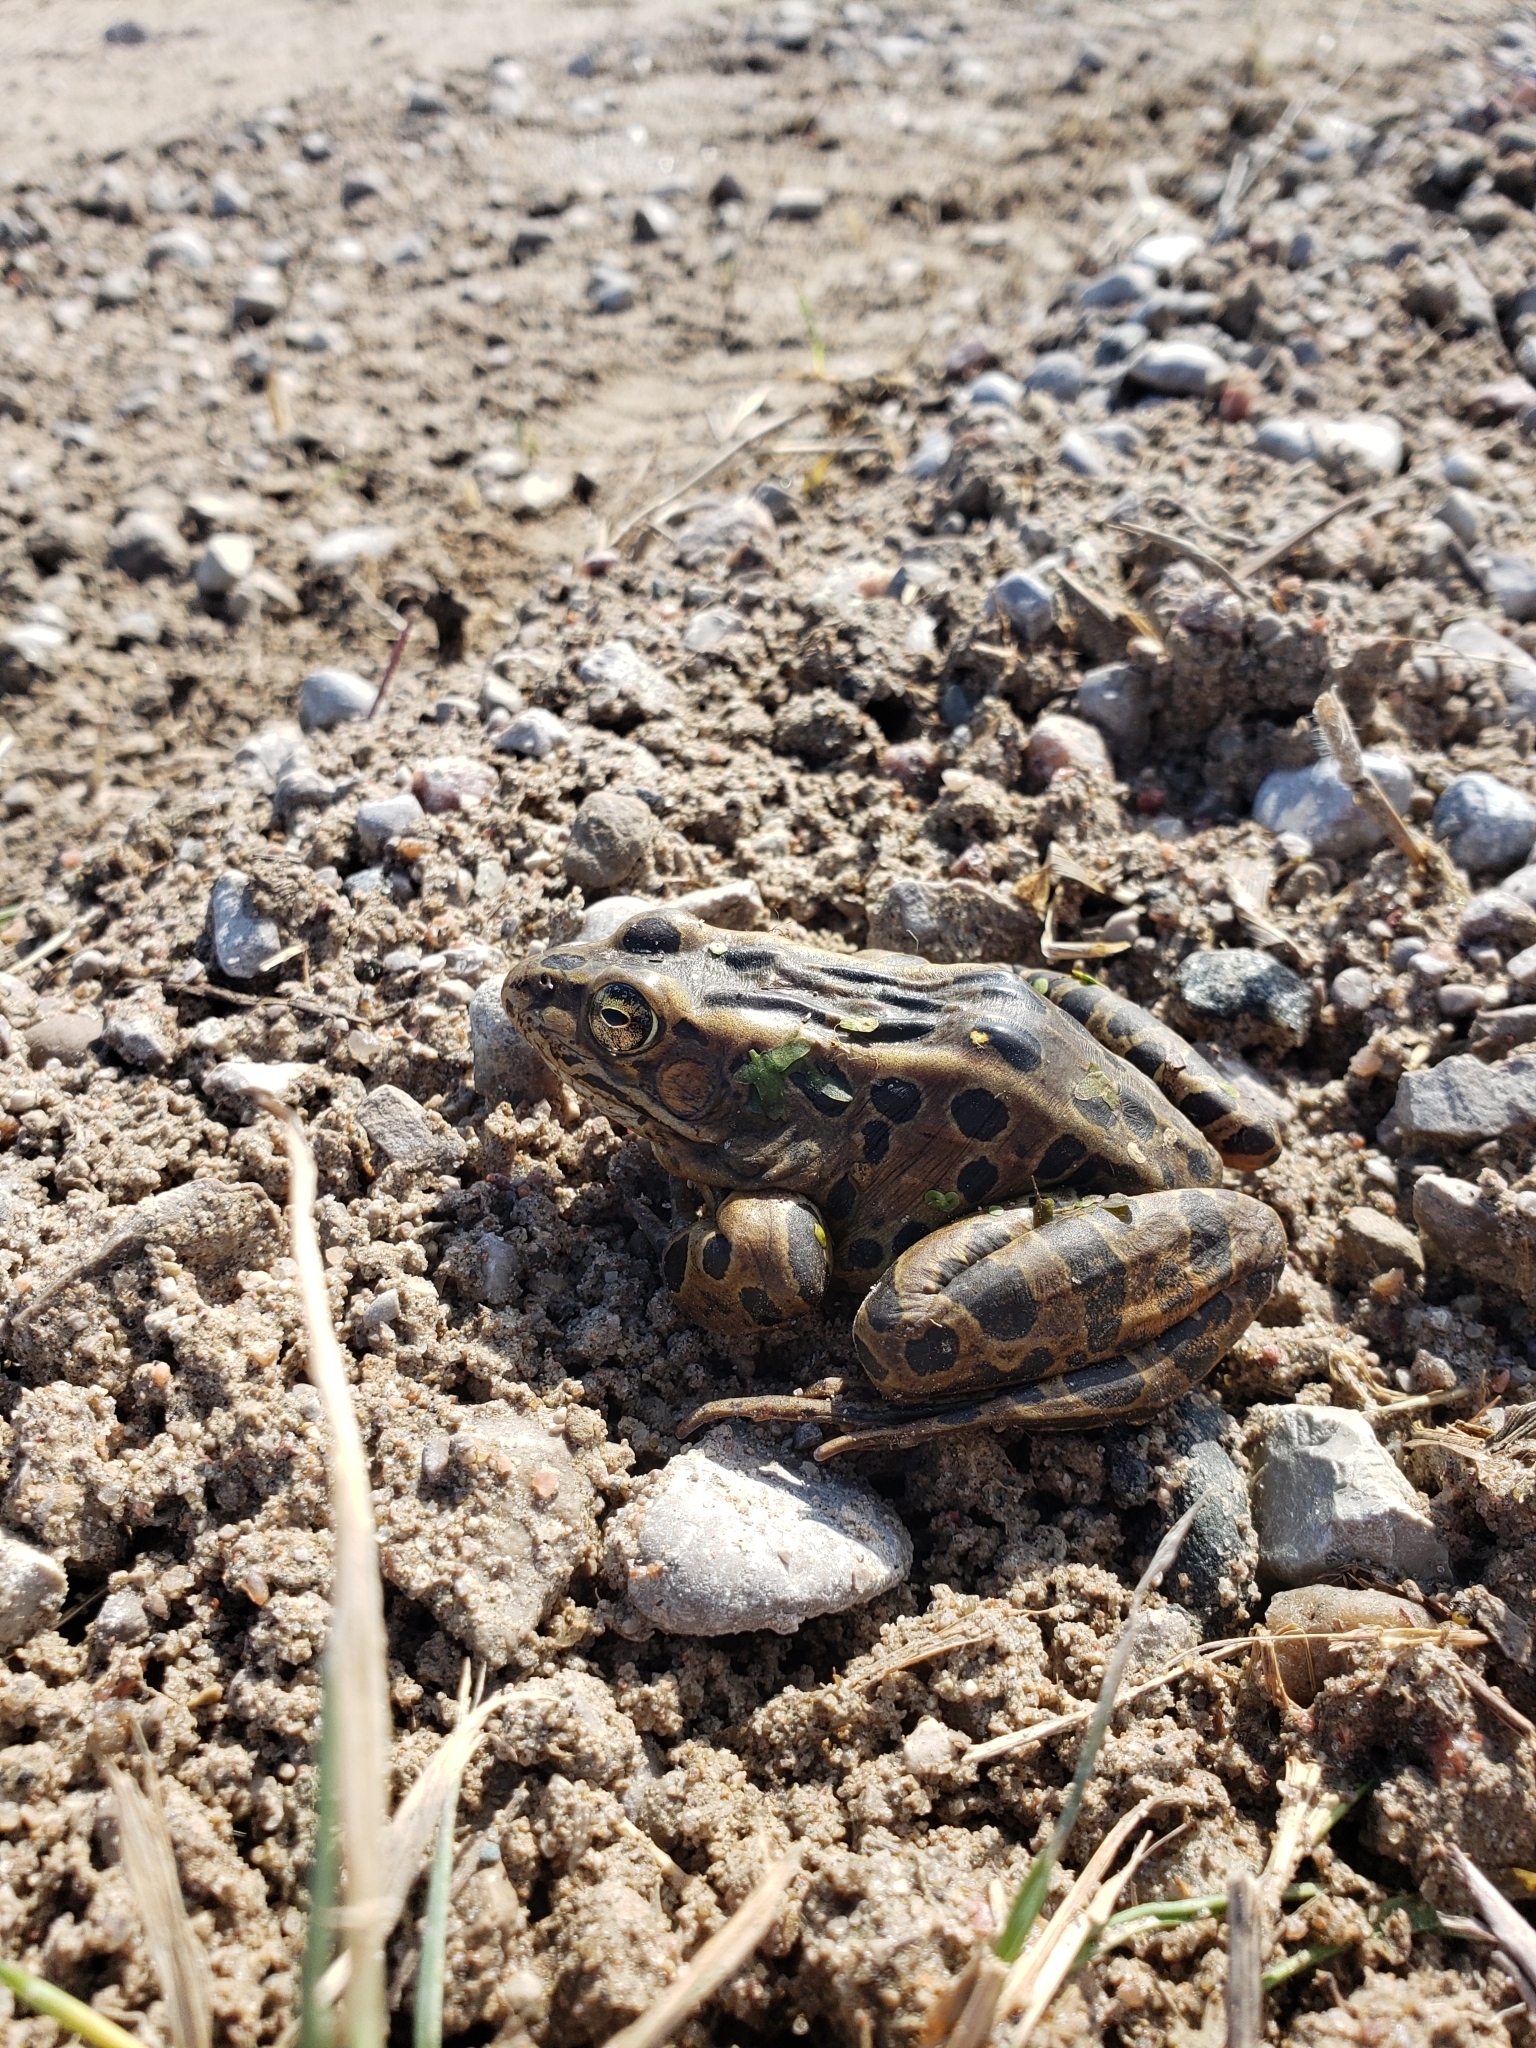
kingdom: Animalia
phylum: Chordata
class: Amphibia
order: Anura
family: Ranidae
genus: Lithobates
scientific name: Lithobates pipiens
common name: Northern leopard frog
